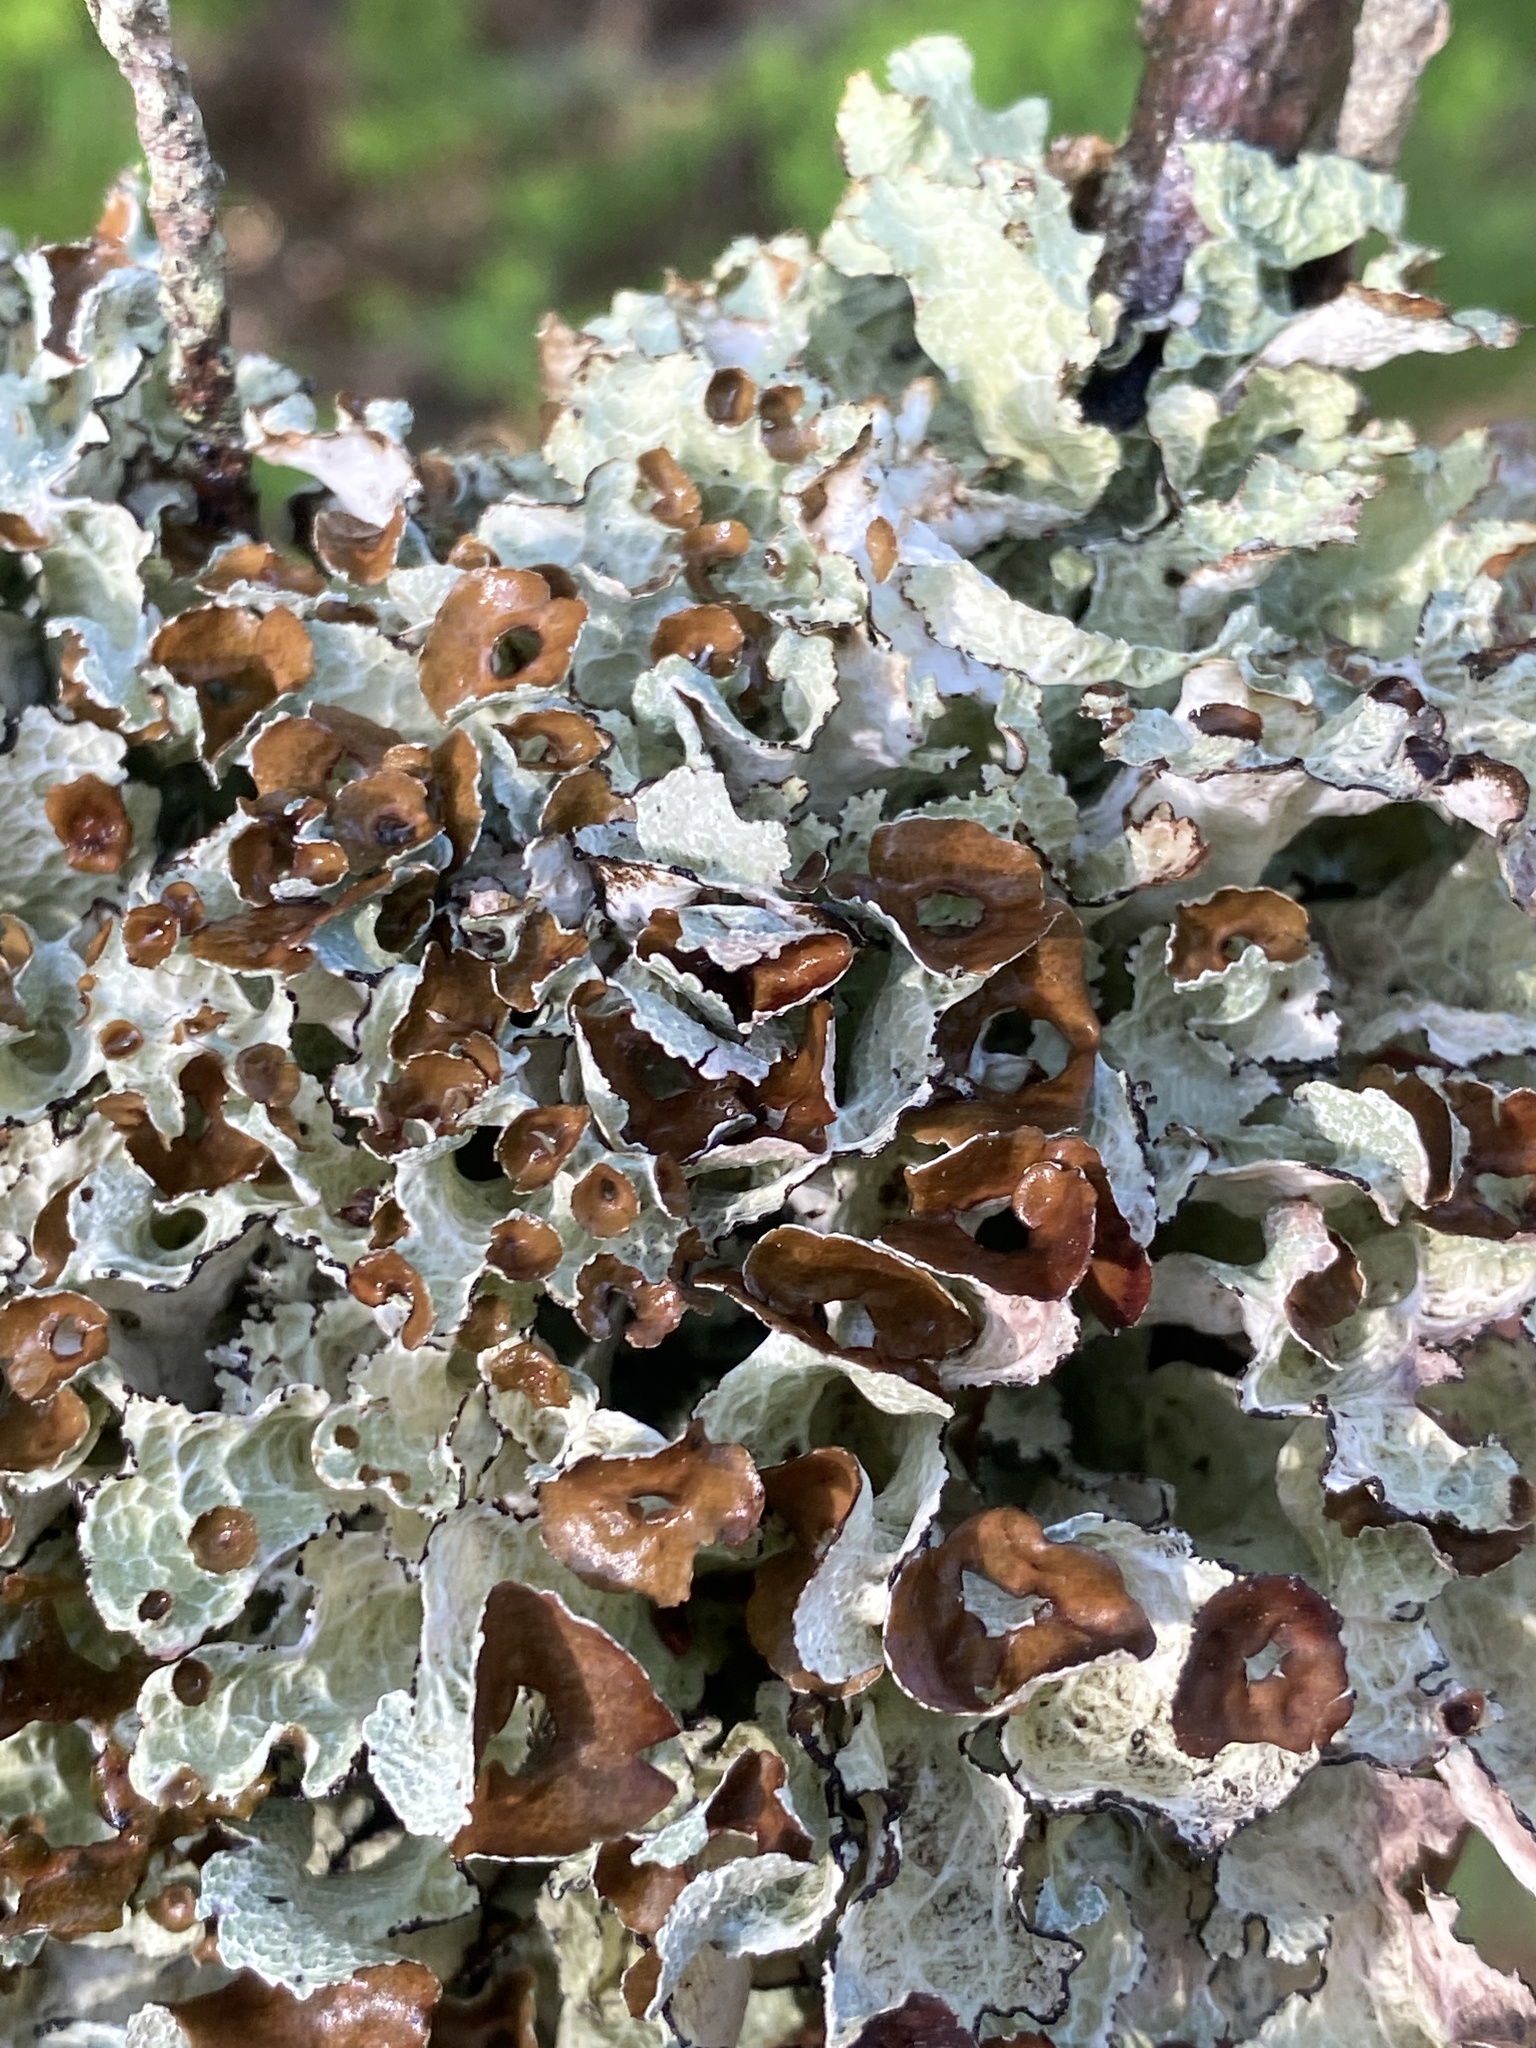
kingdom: Fungi
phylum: Ascomycota
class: Lecanoromycetes
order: Lecanorales
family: Parmeliaceae
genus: Platismatia
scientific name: Platismatia tuckermanii
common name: Crumpled rag lichen
